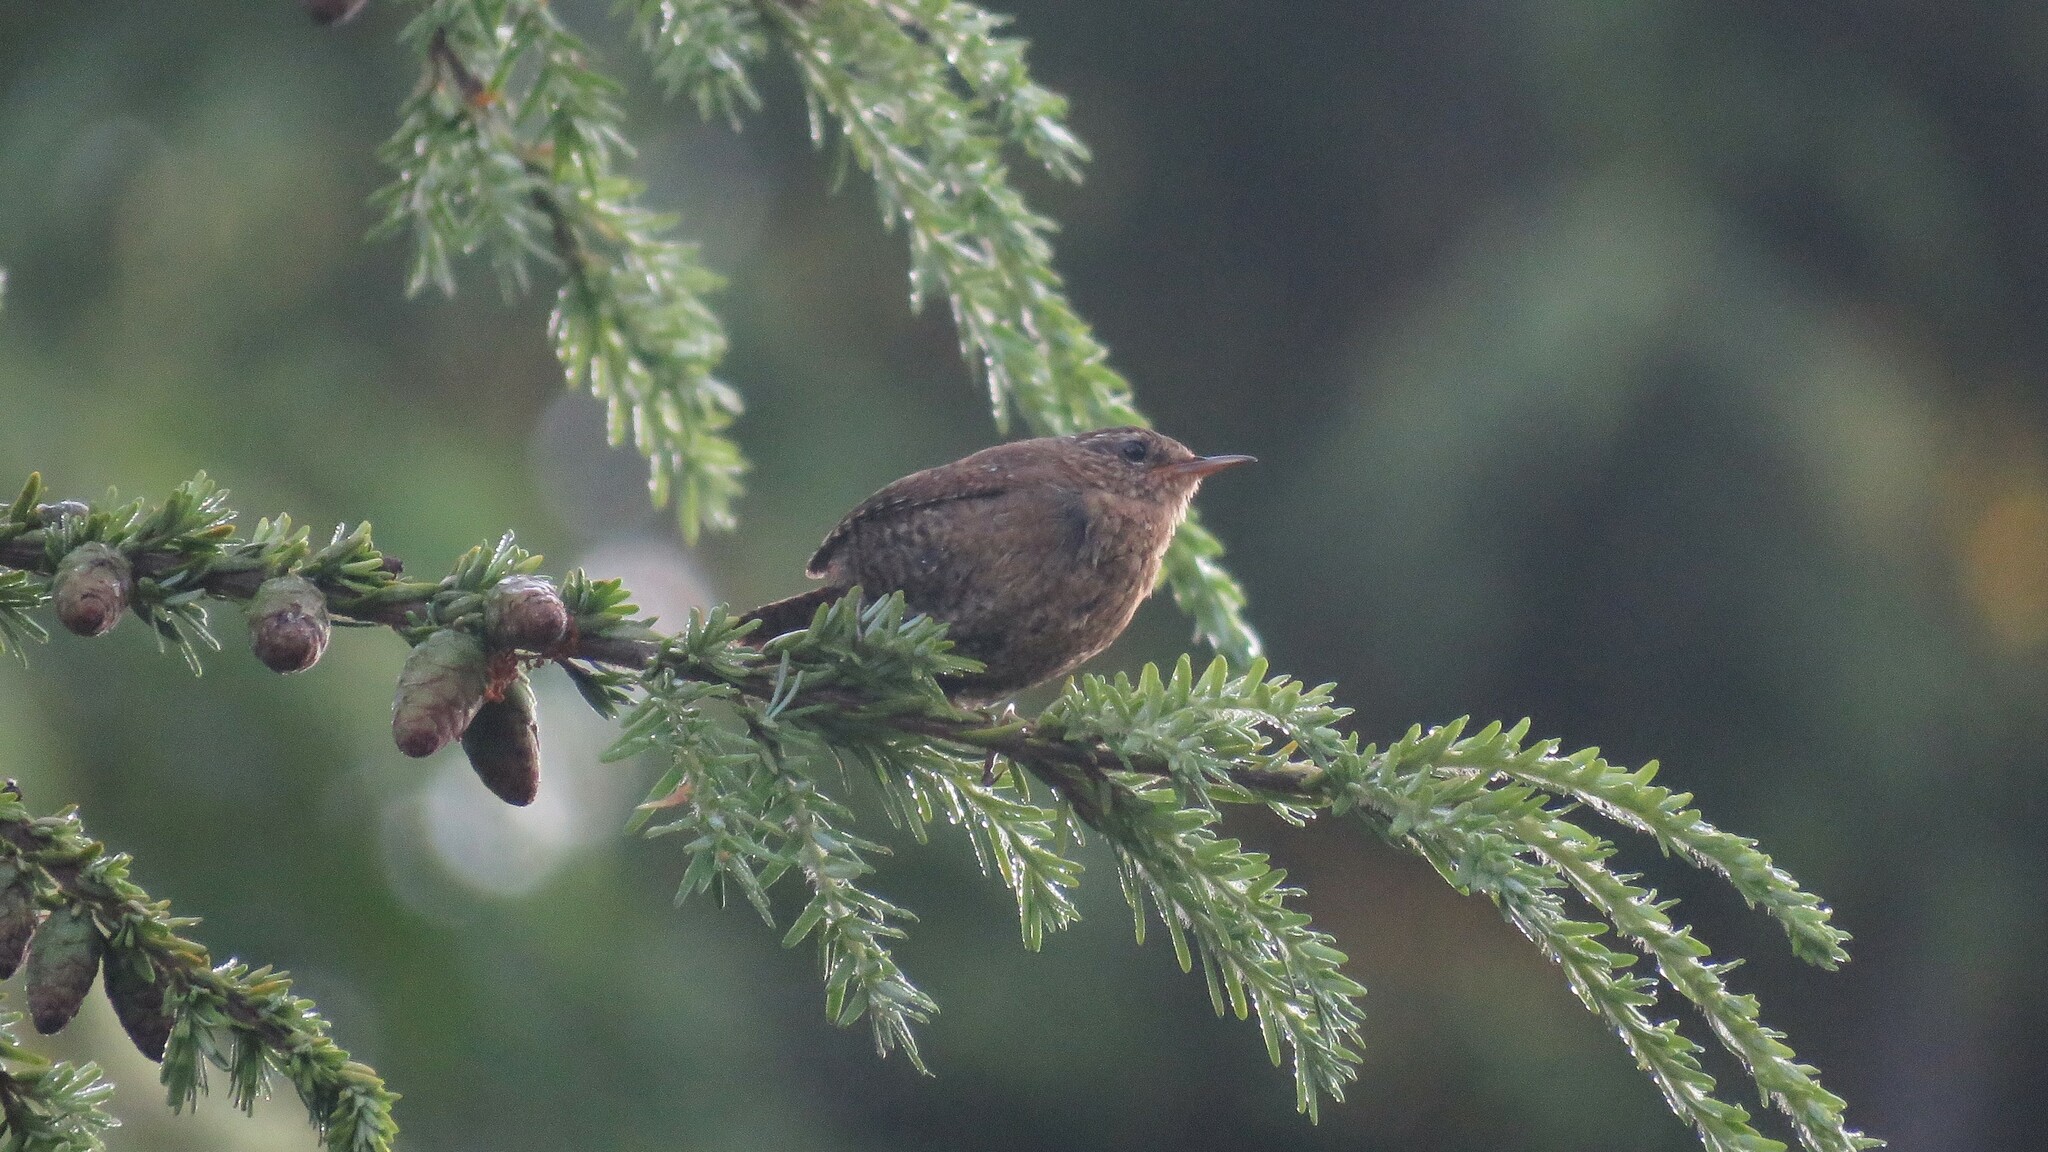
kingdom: Animalia
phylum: Chordata
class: Aves
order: Passeriformes
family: Troglodytidae
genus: Troglodytes
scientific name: Troglodytes pacificus
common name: Pacific wren
